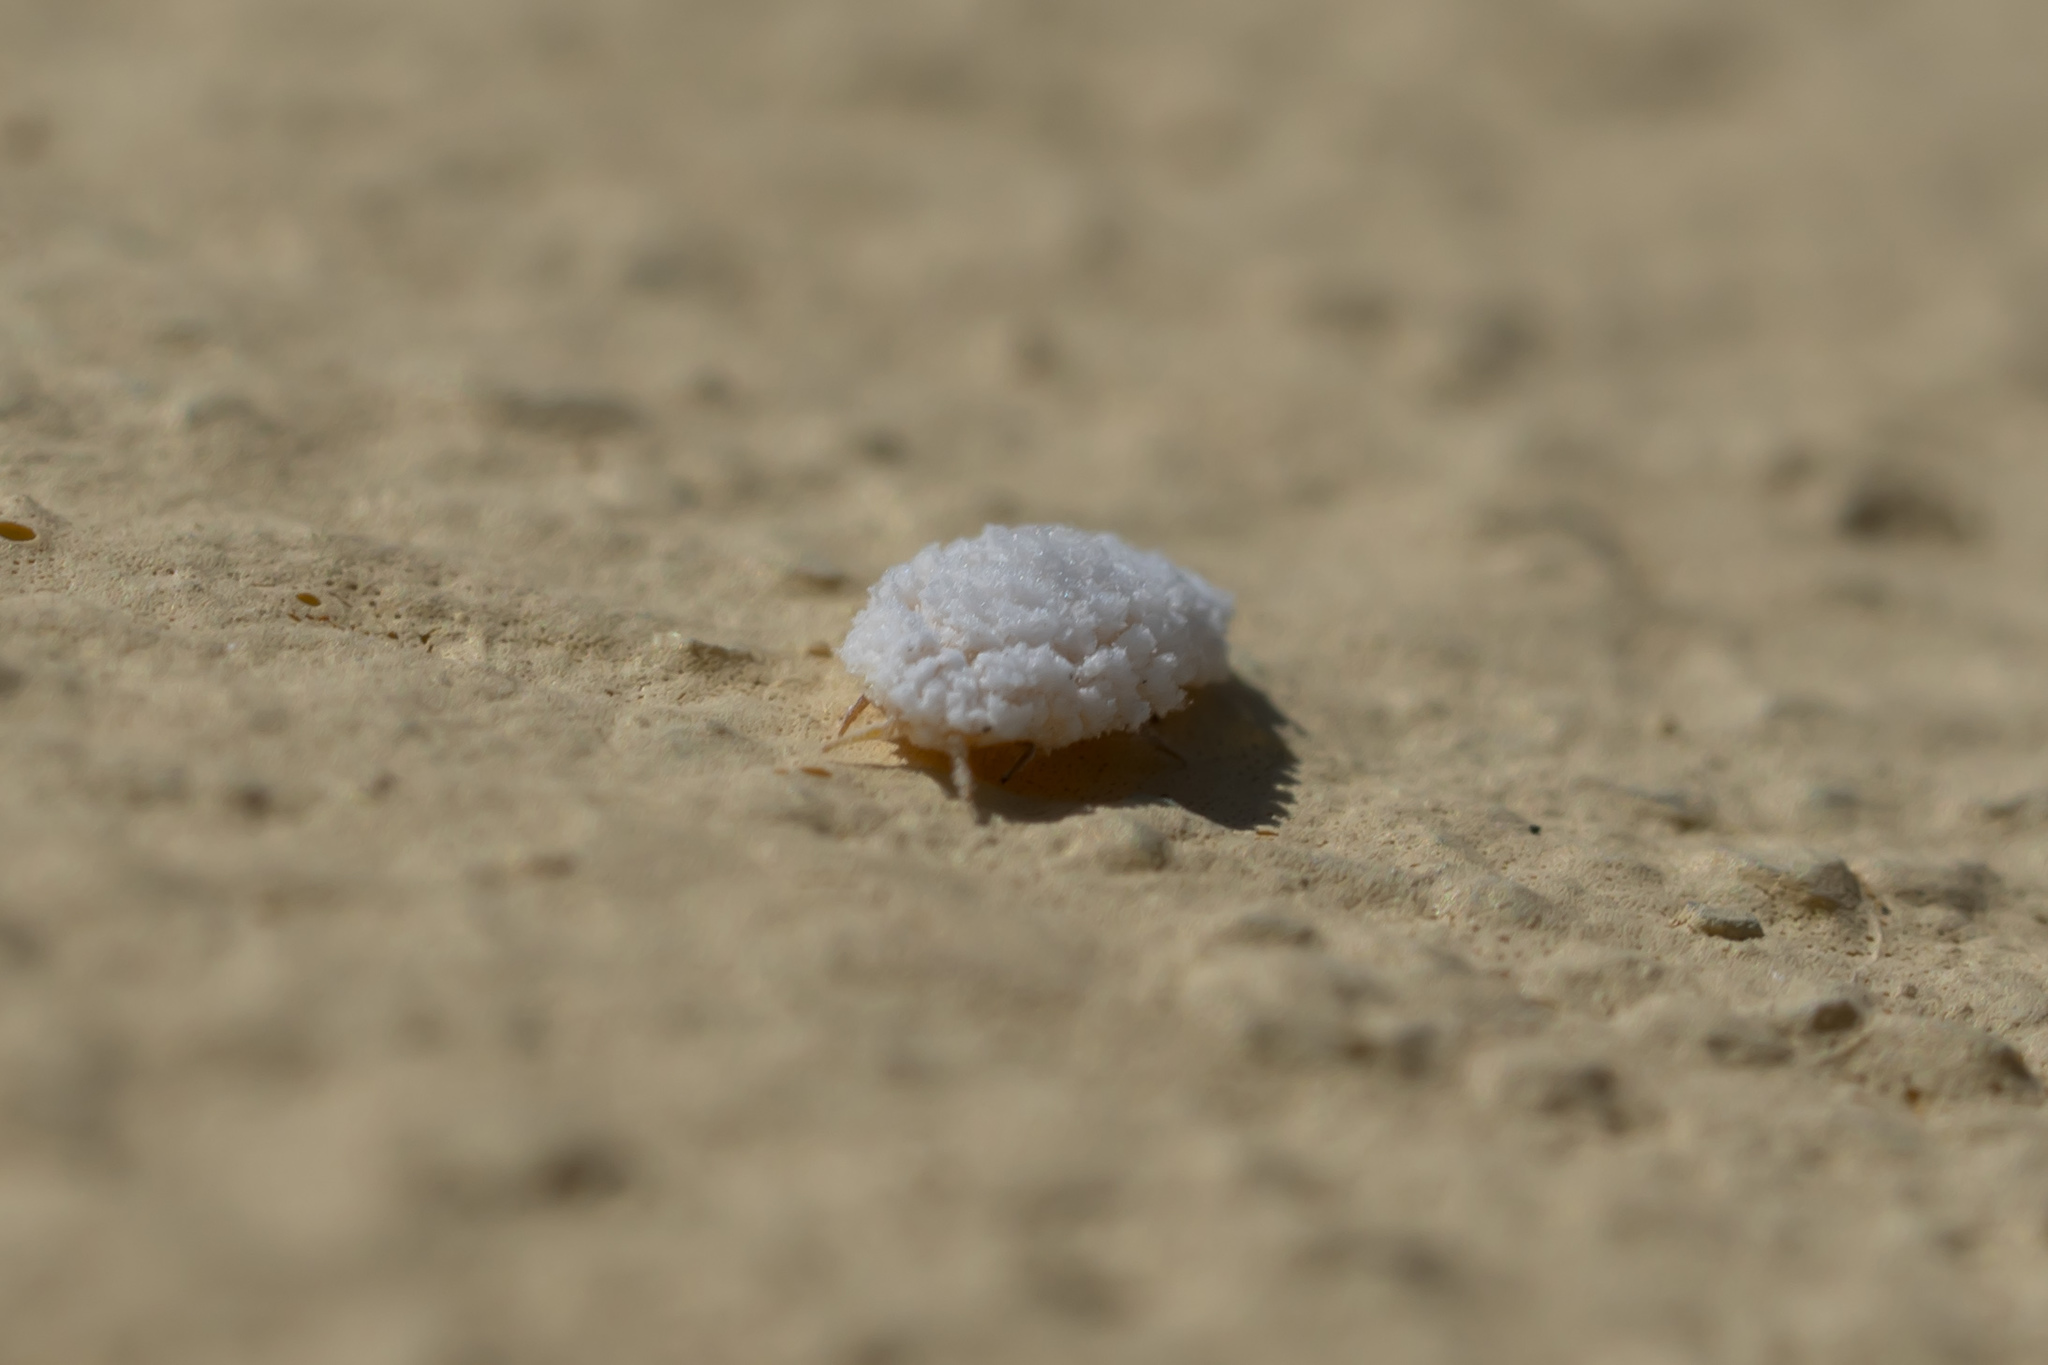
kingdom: Animalia
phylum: Arthropoda
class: Insecta
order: Hemiptera
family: Margarodidae
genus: Marchalina
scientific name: Marchalina hellenica
